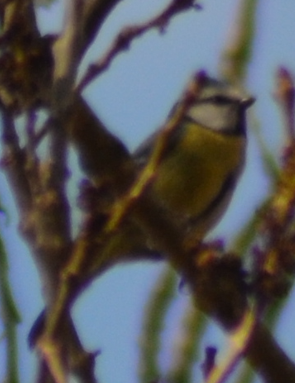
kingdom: Animalia
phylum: Chordata
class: Aves
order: Passeriformes
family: Paridae
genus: Cyanistes
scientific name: Cyanistes caeruleus
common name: Eurasian blue tit
